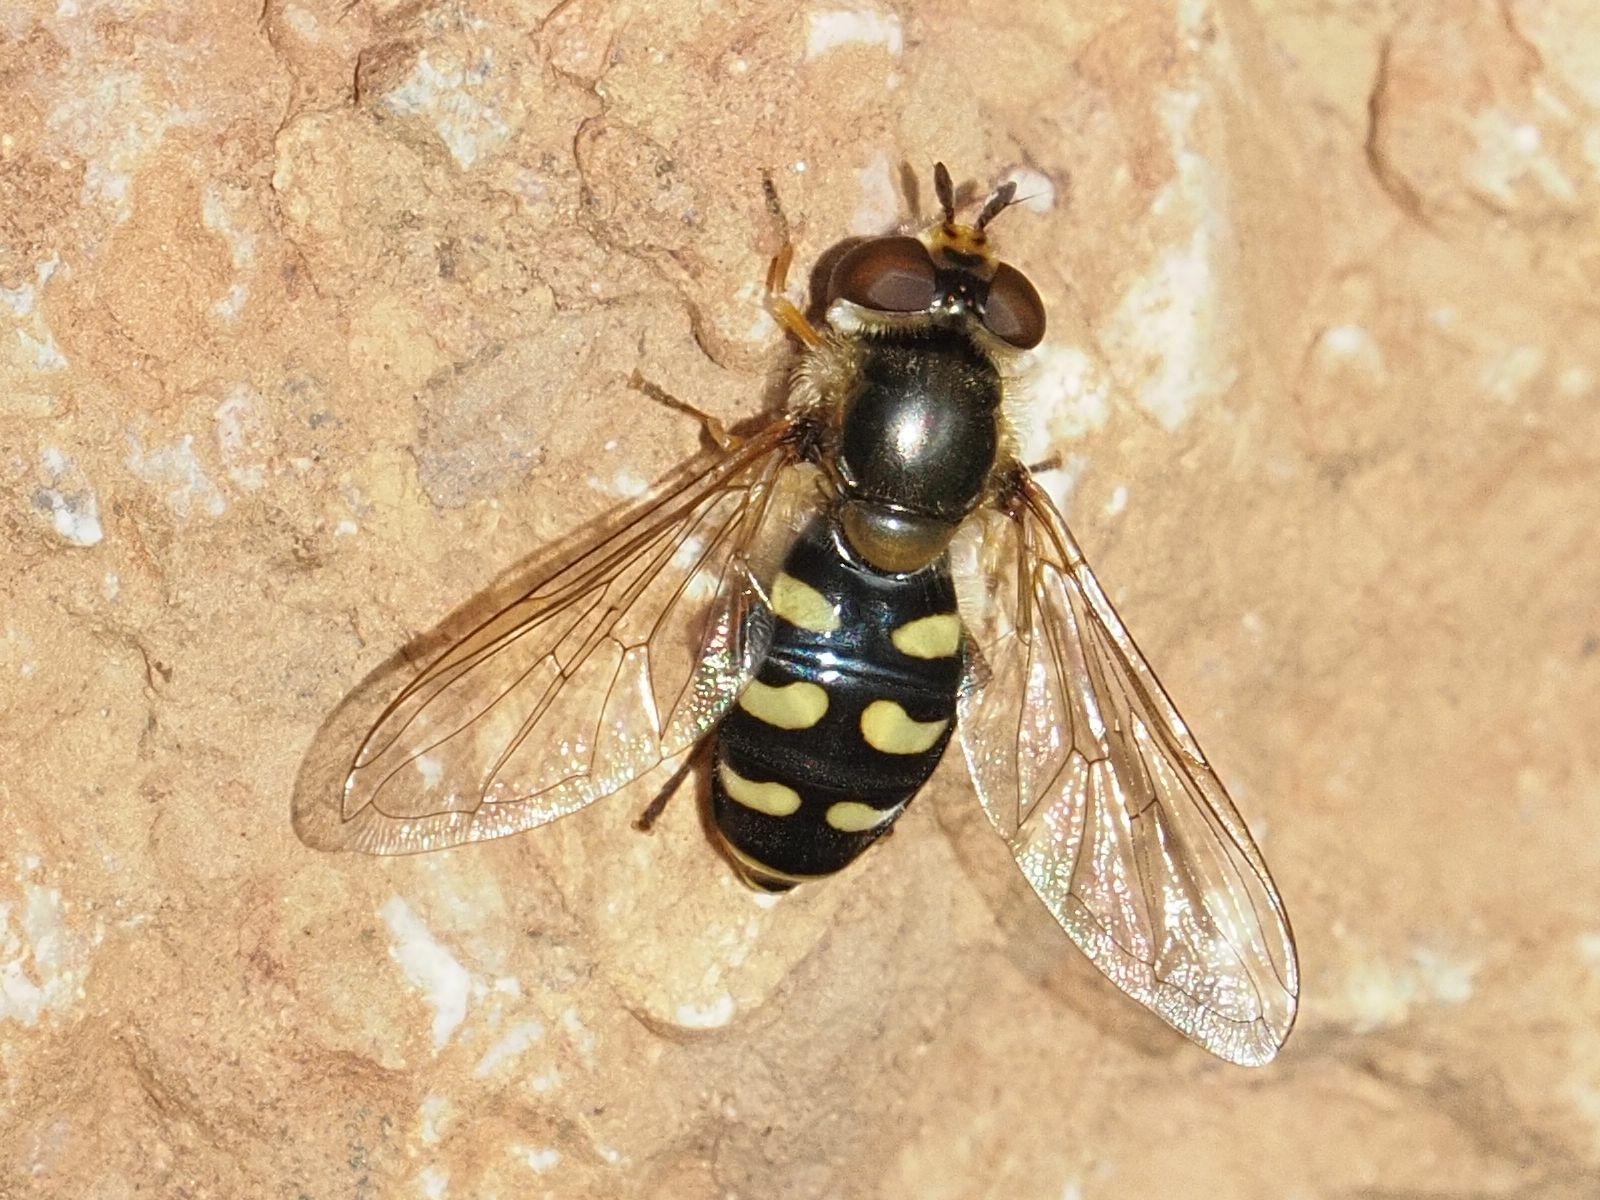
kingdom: Animalia
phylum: Arthropoda
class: Insecta
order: Diptera
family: Syrphidae
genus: Eupeodes
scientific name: Eupeodes luniger
